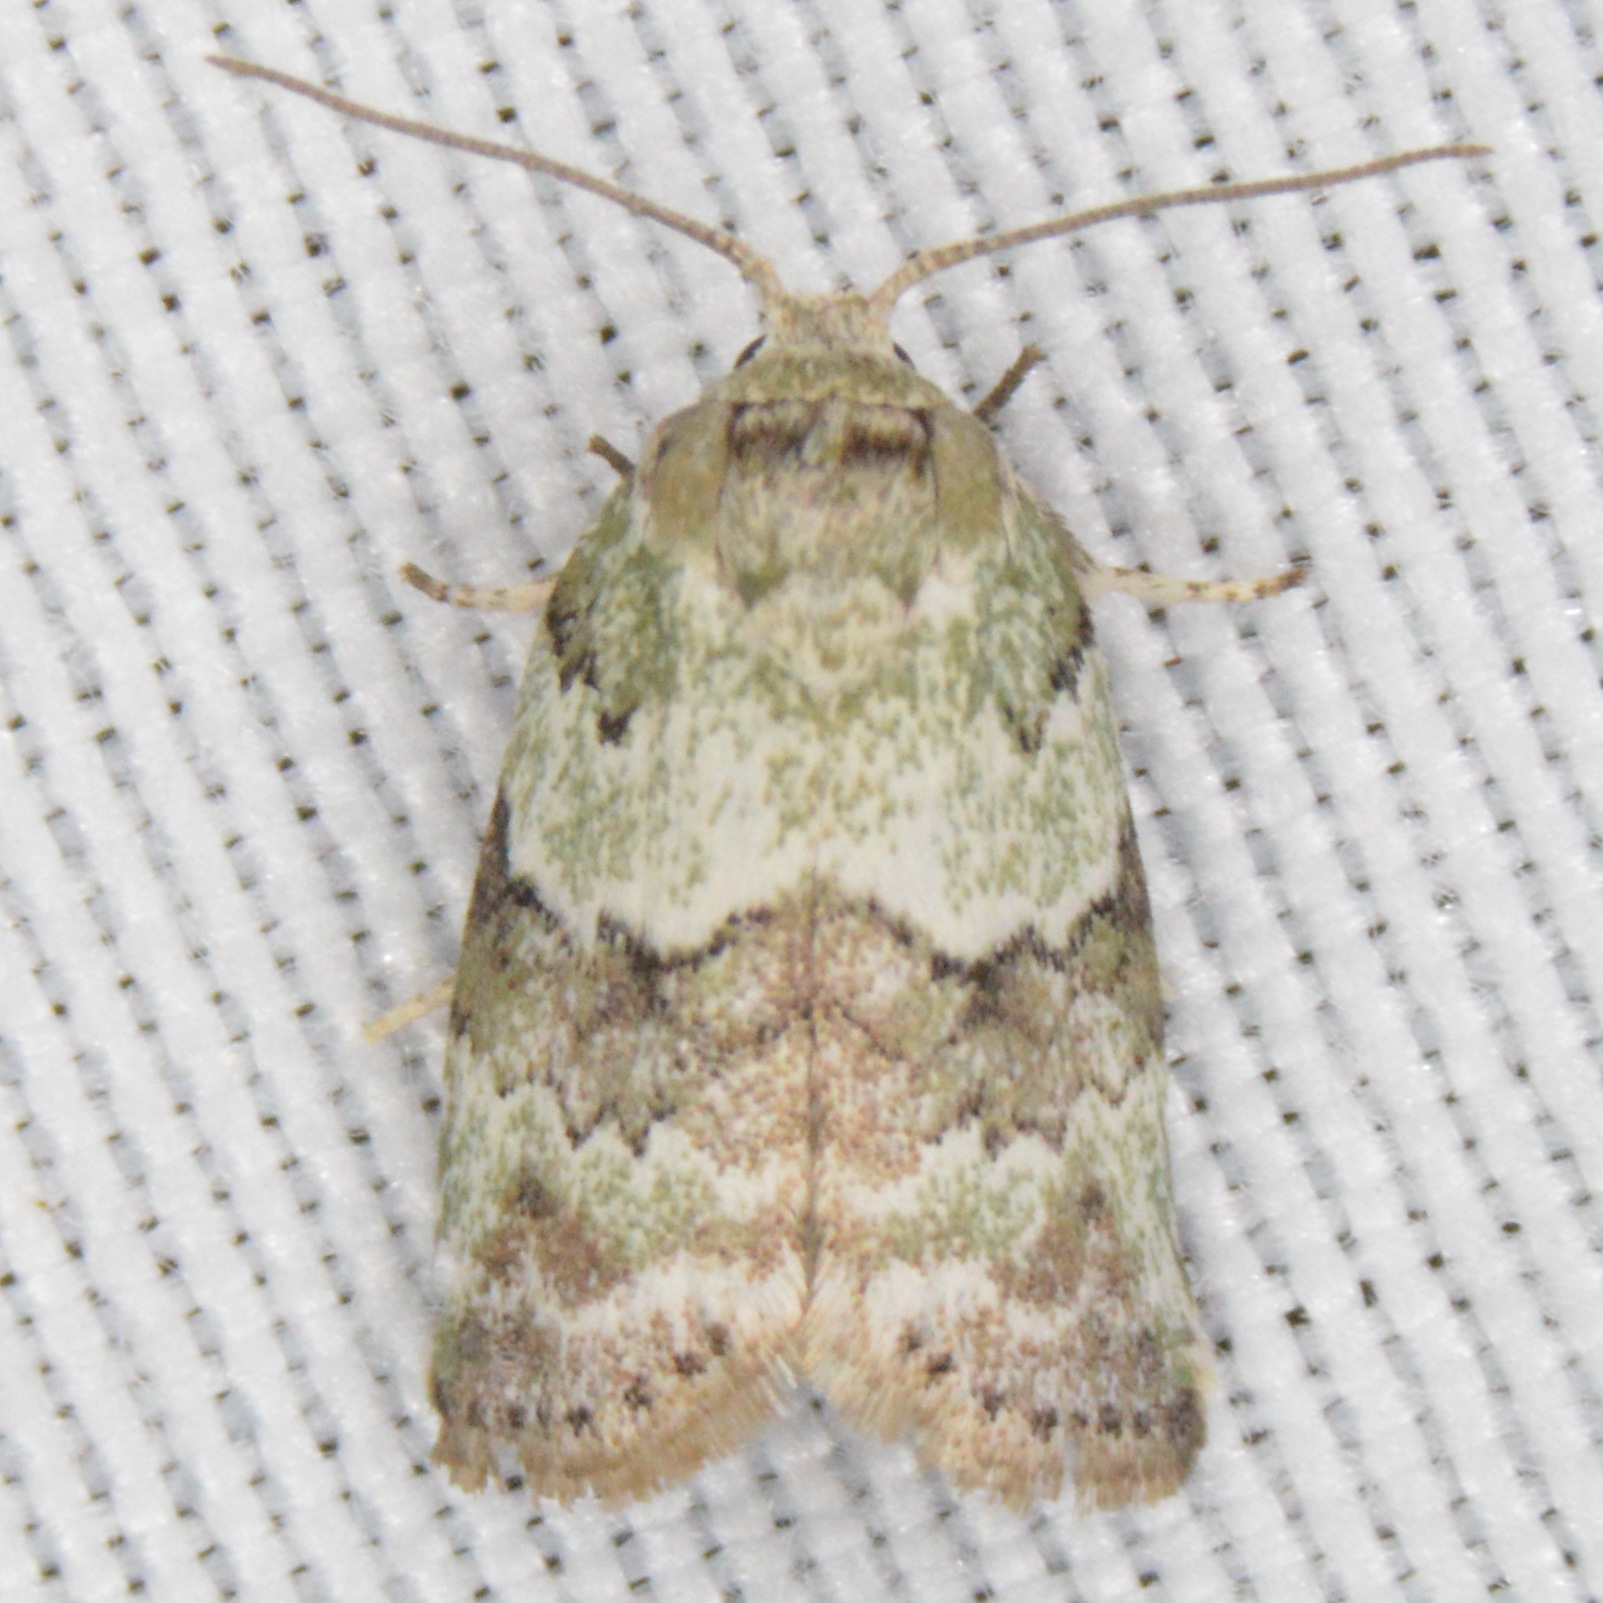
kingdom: Animalia
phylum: Arthropoda
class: Insecta
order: Lepidoptera
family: Nolidae
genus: Afrida
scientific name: Afrida ydatodes
